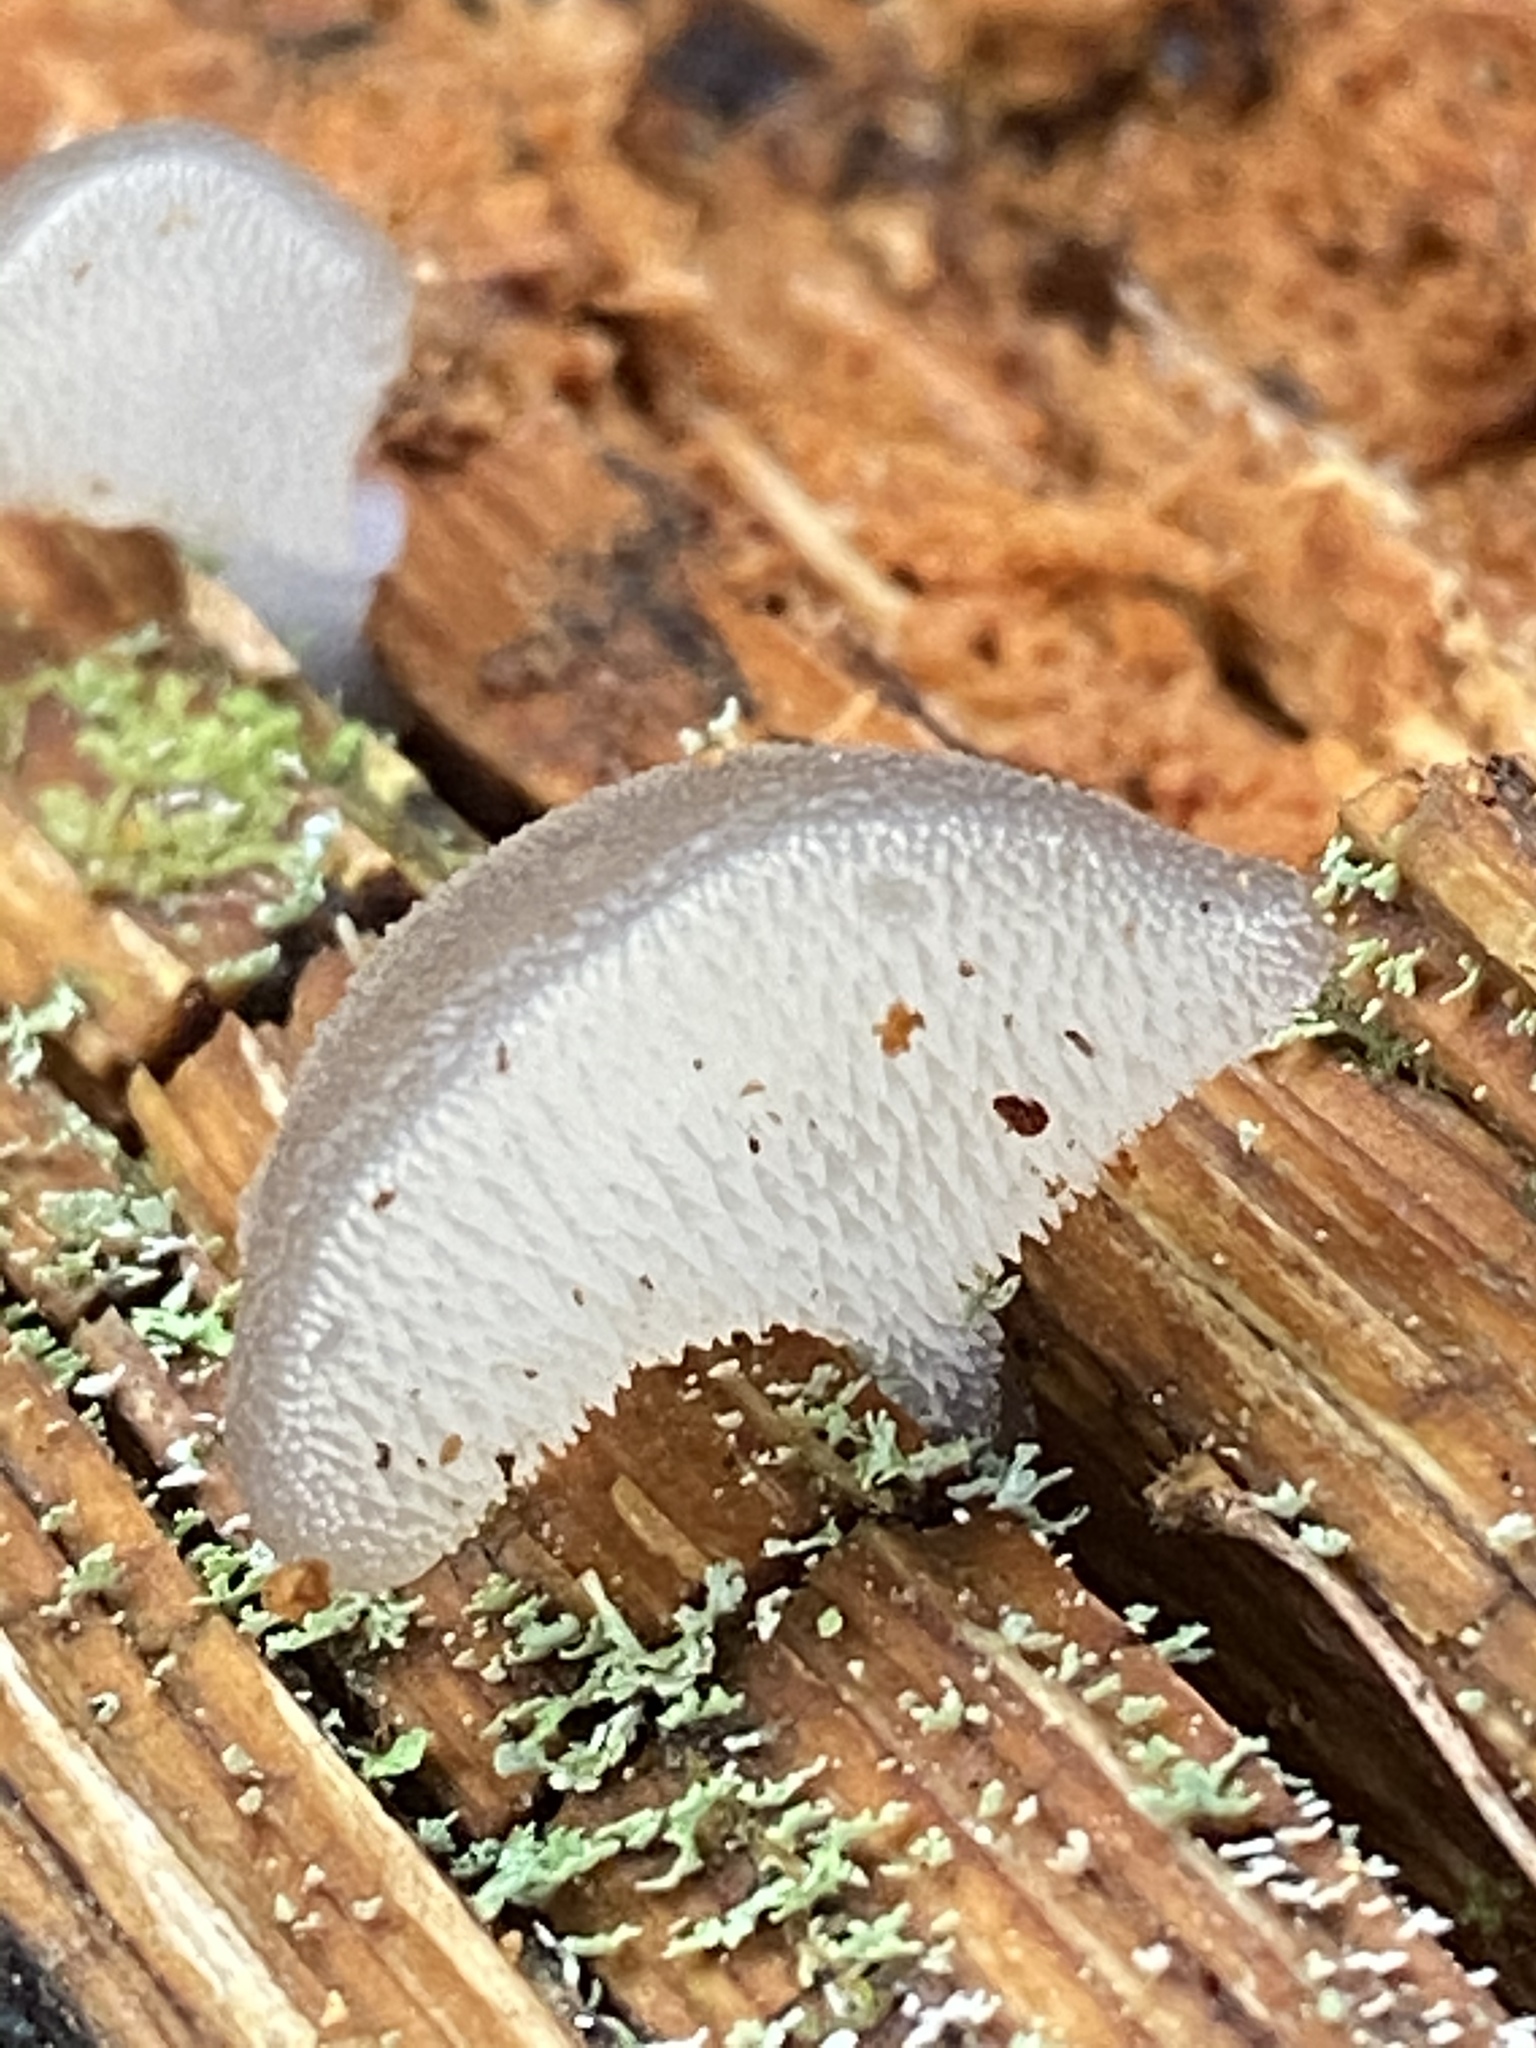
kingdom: Fungi
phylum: Basidiomycota
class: Agaricomycetes
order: Auriculariales
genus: Pseudohydnum
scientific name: Pseudohydnum gelatinosum
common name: Jelly tongue
